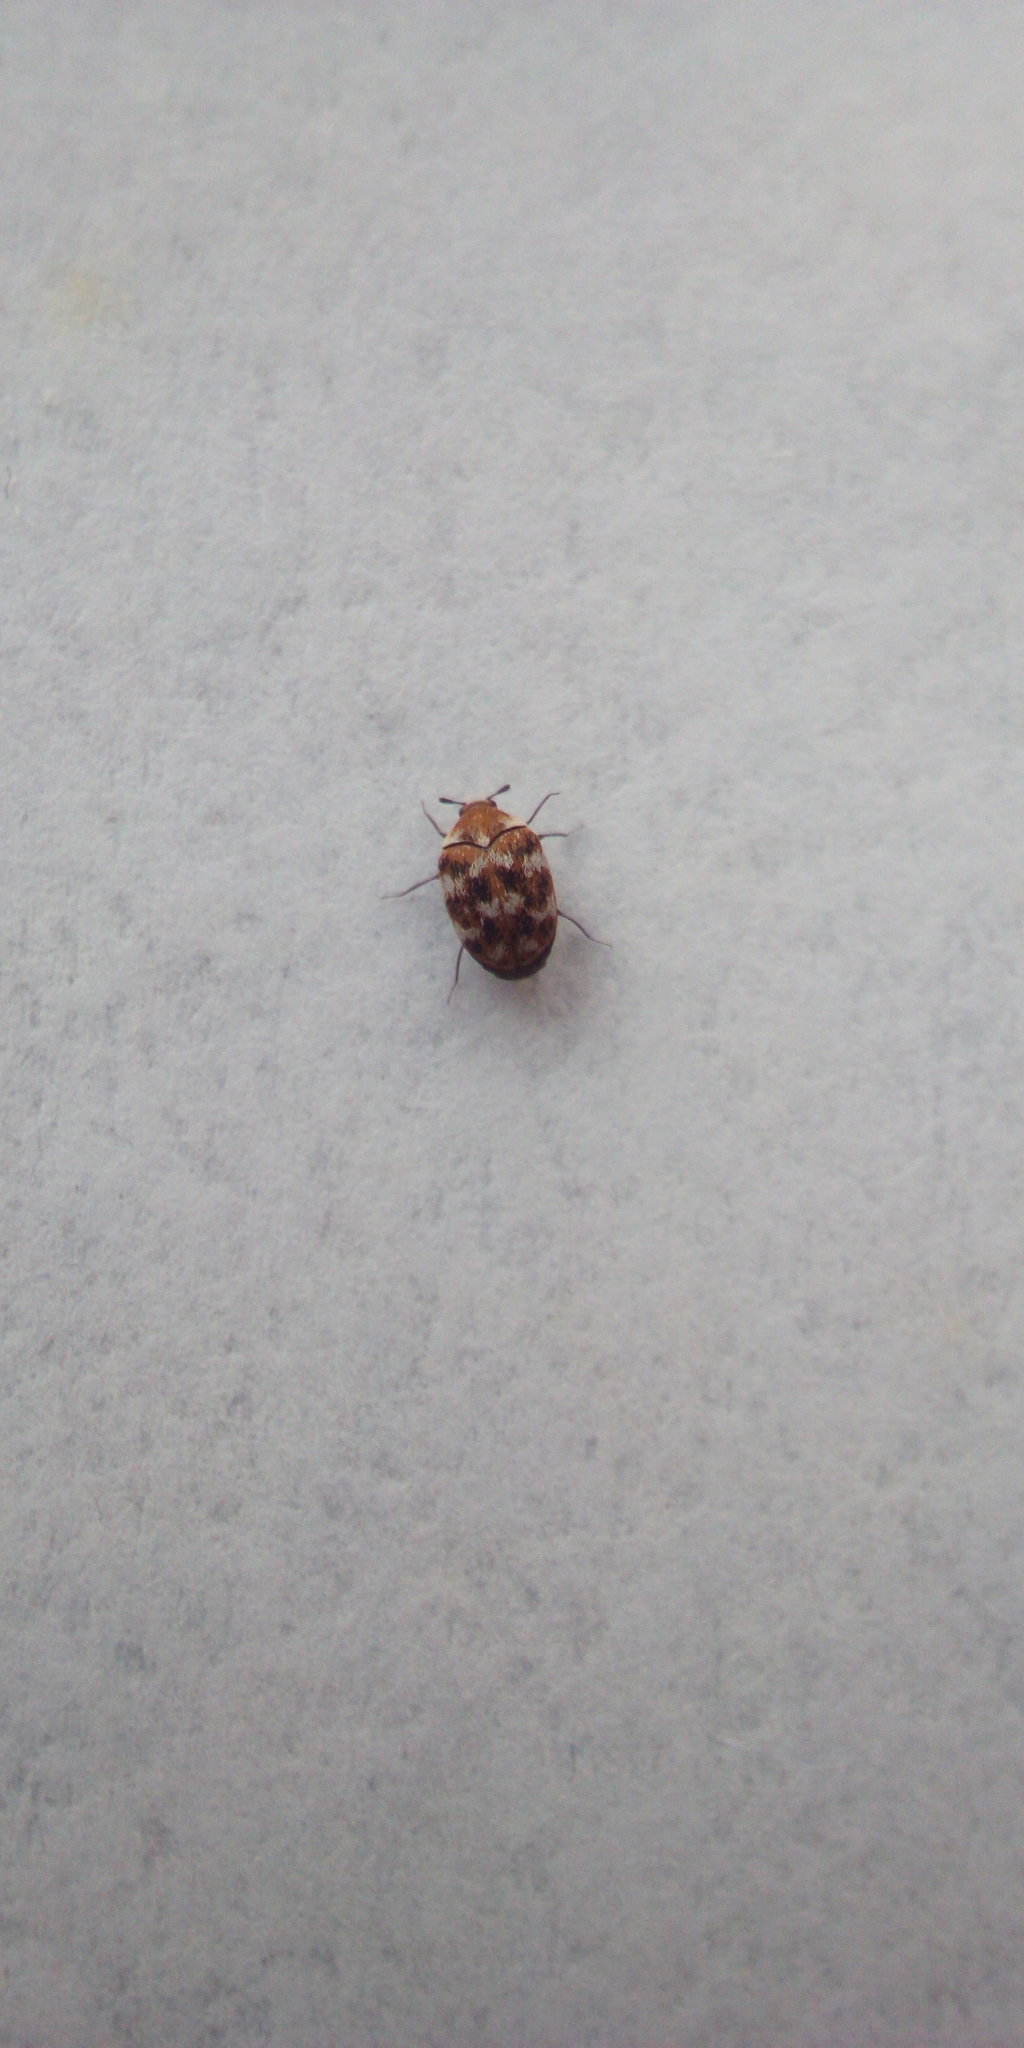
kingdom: Animalia
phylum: Arthropoda
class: Insecta
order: Coleoptera
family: Dermestidae
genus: Anthrenus
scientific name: Anthrenus verbasci
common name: Varied carpet beetle
